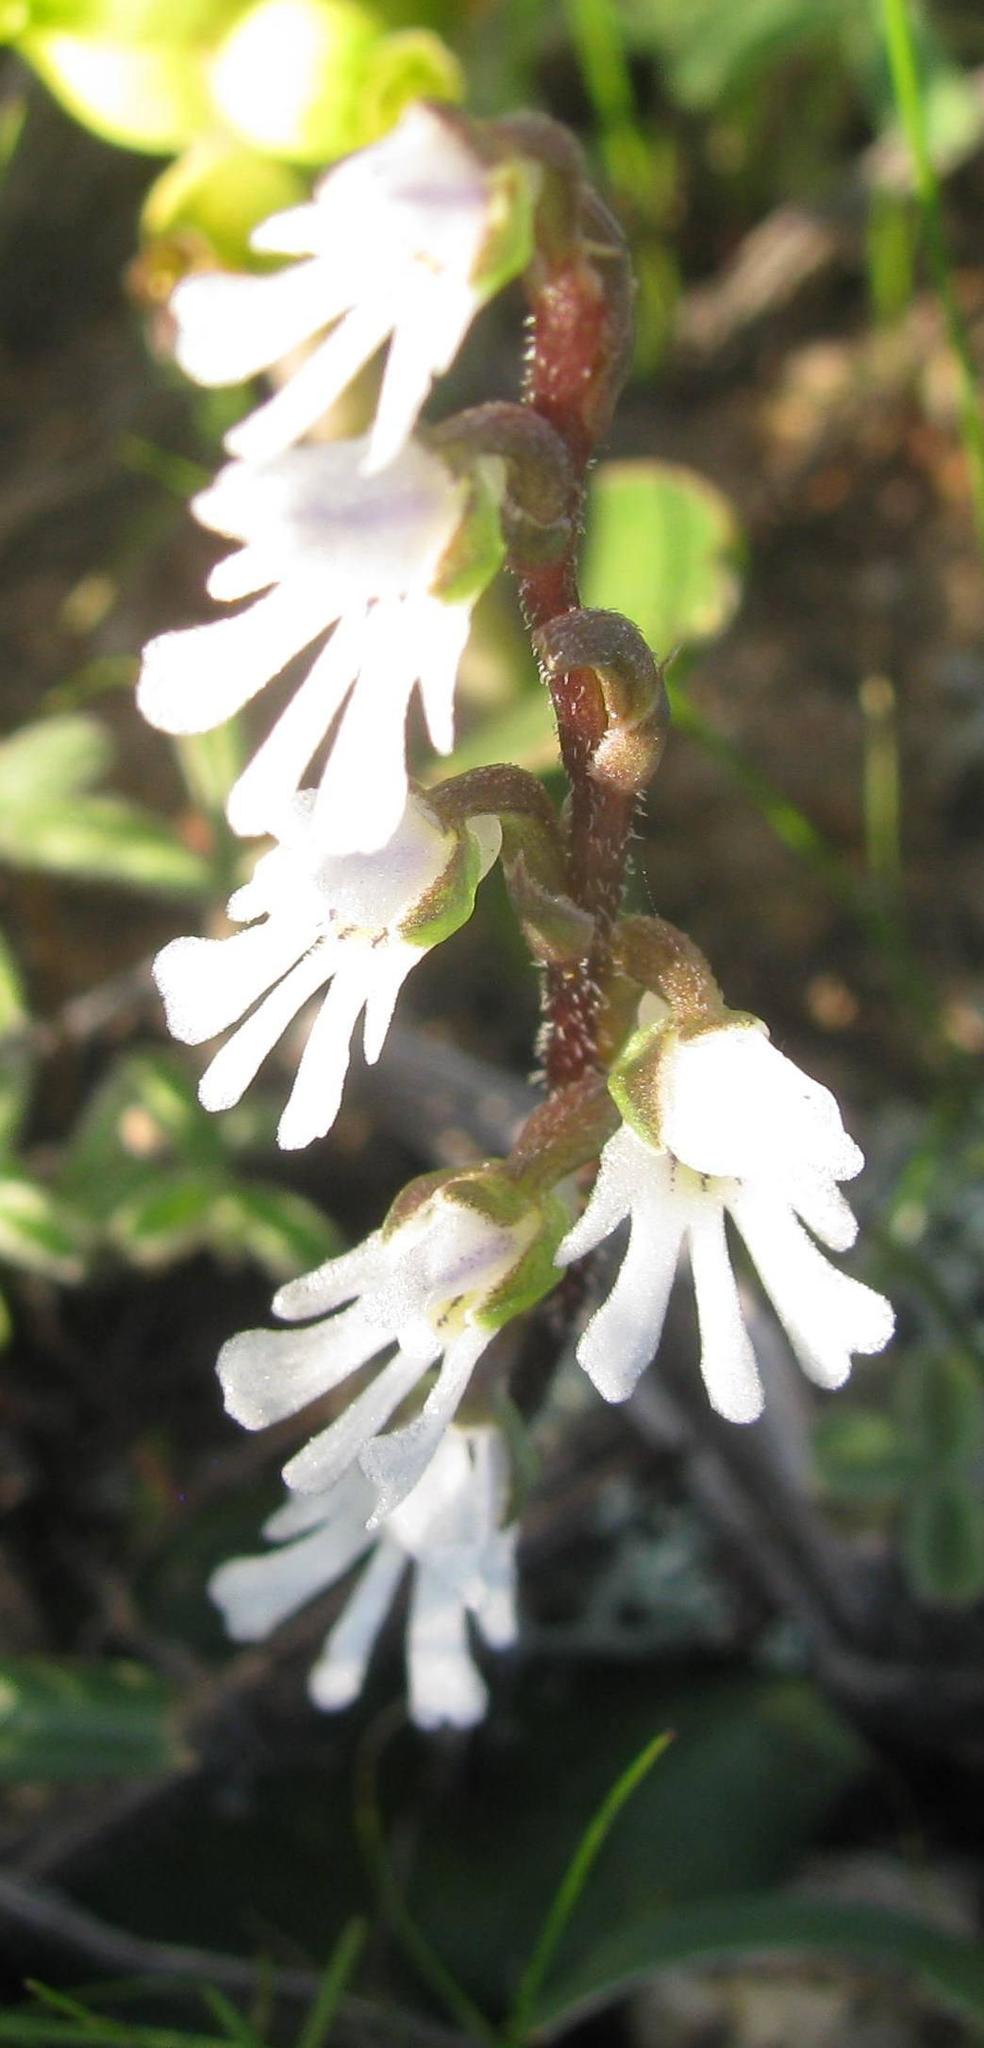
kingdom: Plantae
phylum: Tracheophyta
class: Liliopsida
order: Asparagales
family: Orchidaceae
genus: Holothrix
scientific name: Holothrix aspera
